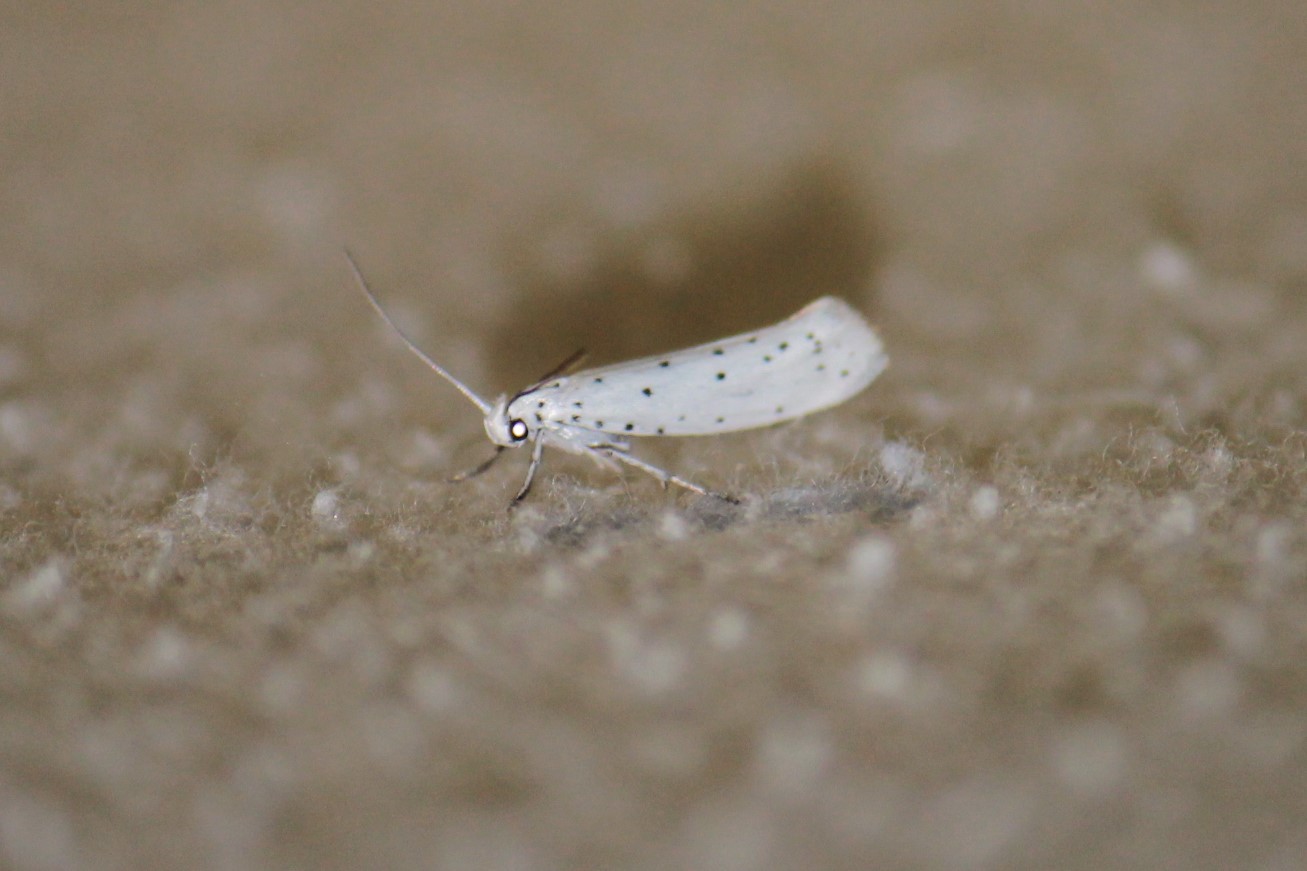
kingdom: Animalia
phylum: Arthropoda
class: Insecta
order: Lepidoptera
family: Yponomeutidae
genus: Yponomeuta
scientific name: Yponomeuta padella
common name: Orchard ermine
